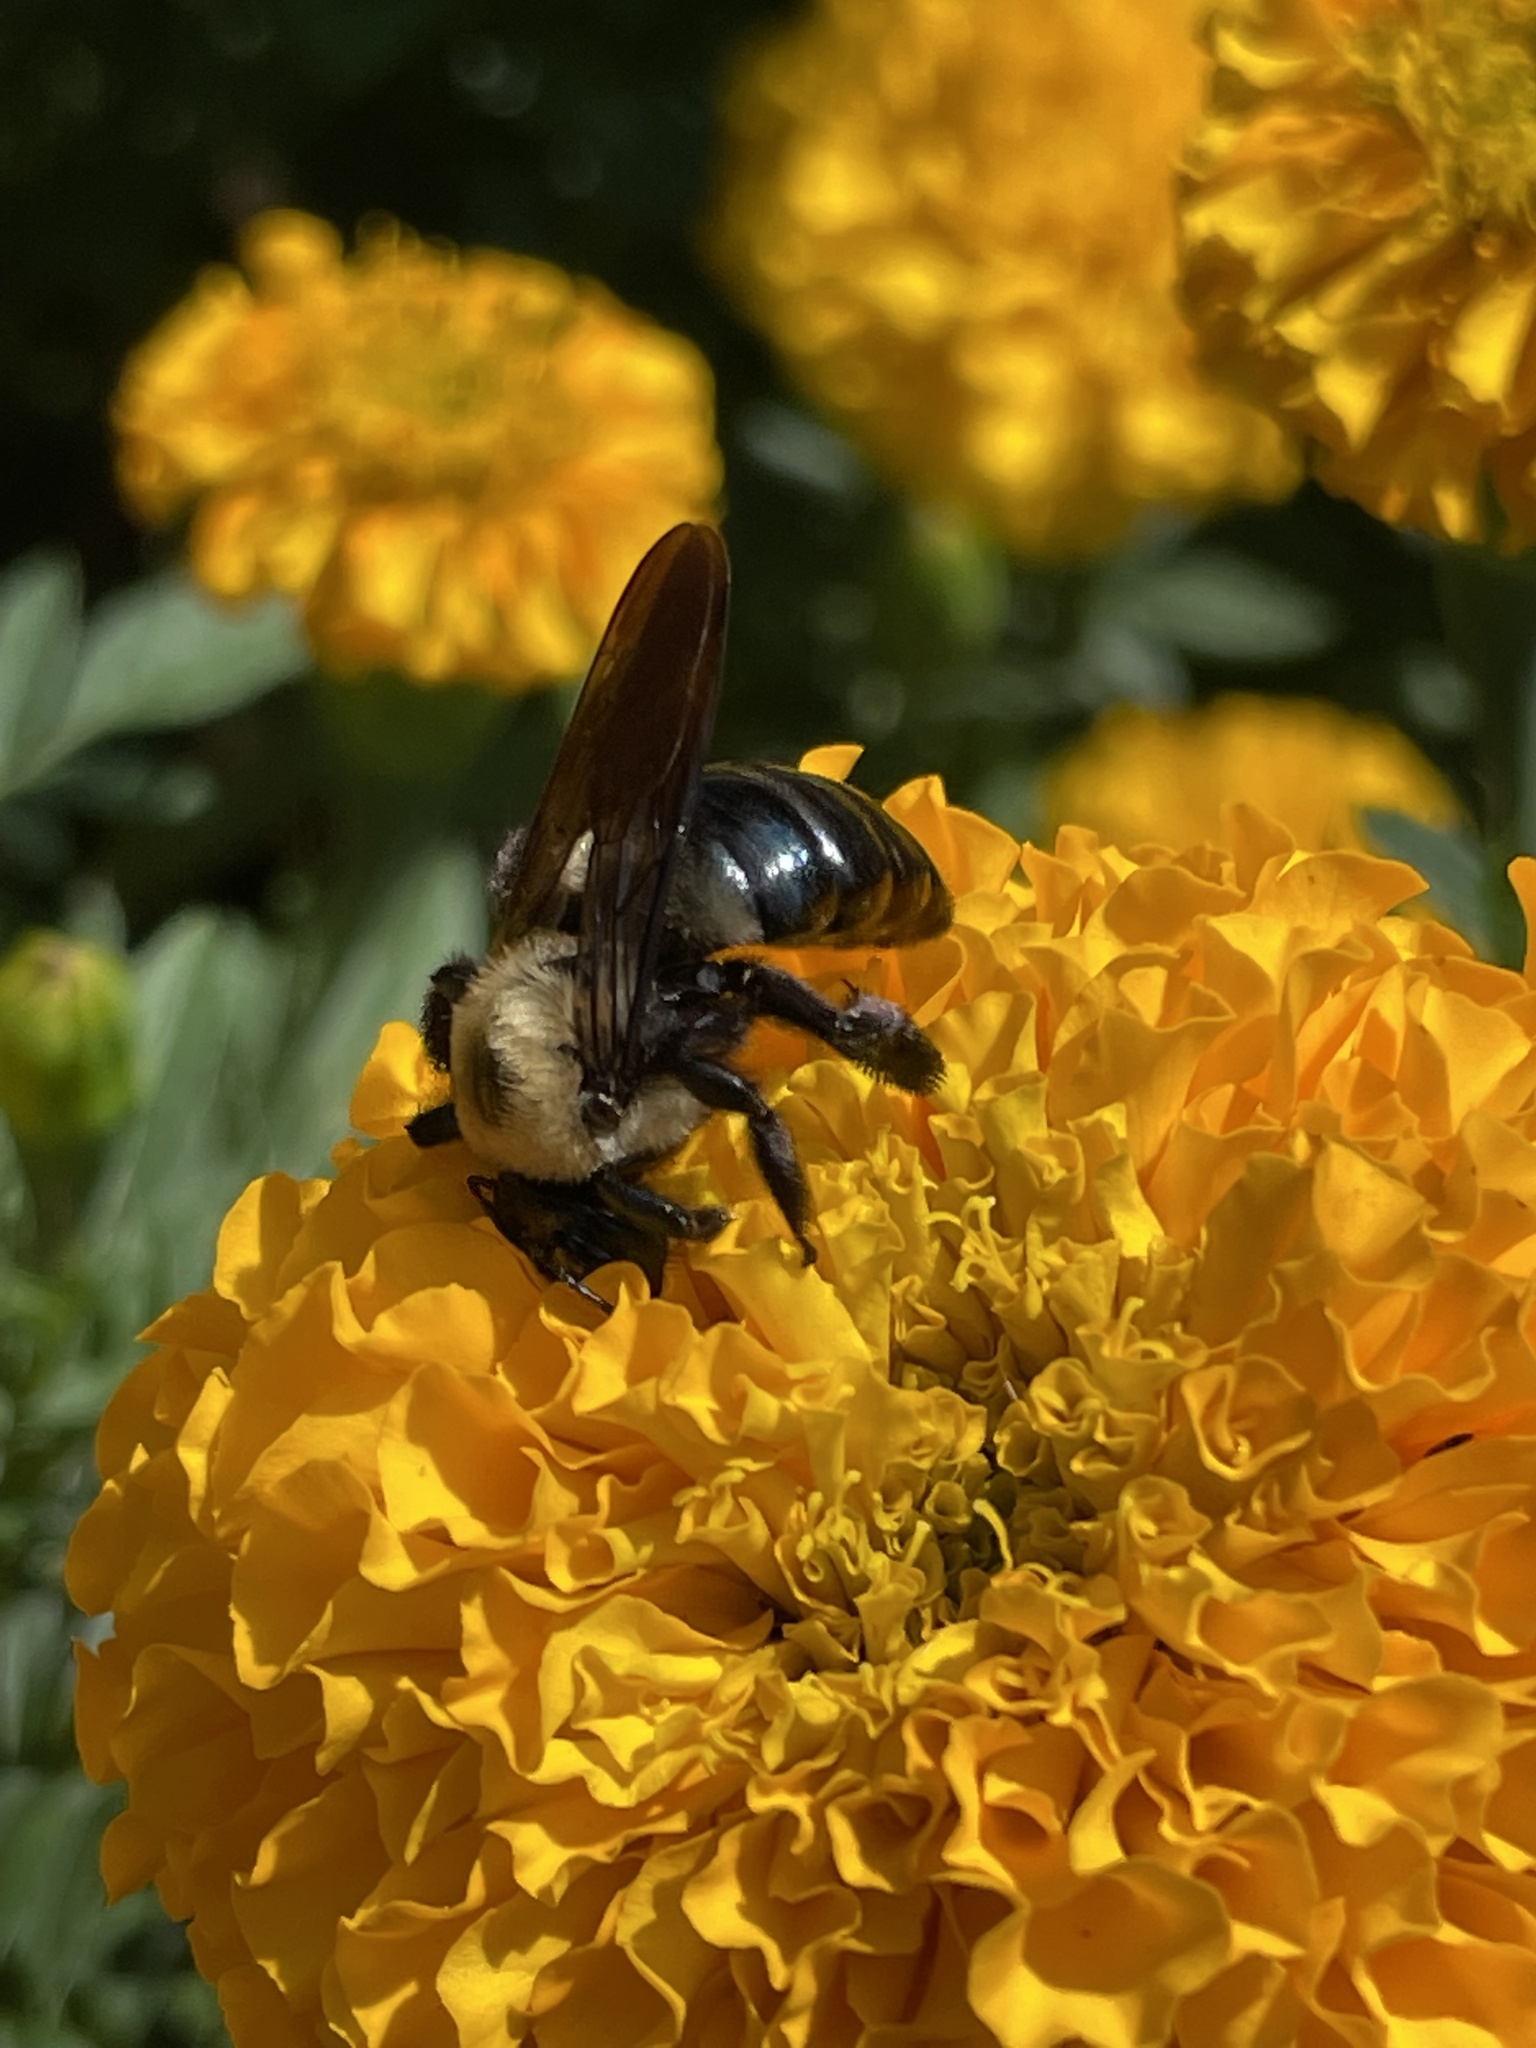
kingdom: Animalia
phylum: Arthropoda
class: Insecta
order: Hymenoptera
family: Apidae
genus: Xylocopa
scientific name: Xylocopa virginica
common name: Carpenter bee
